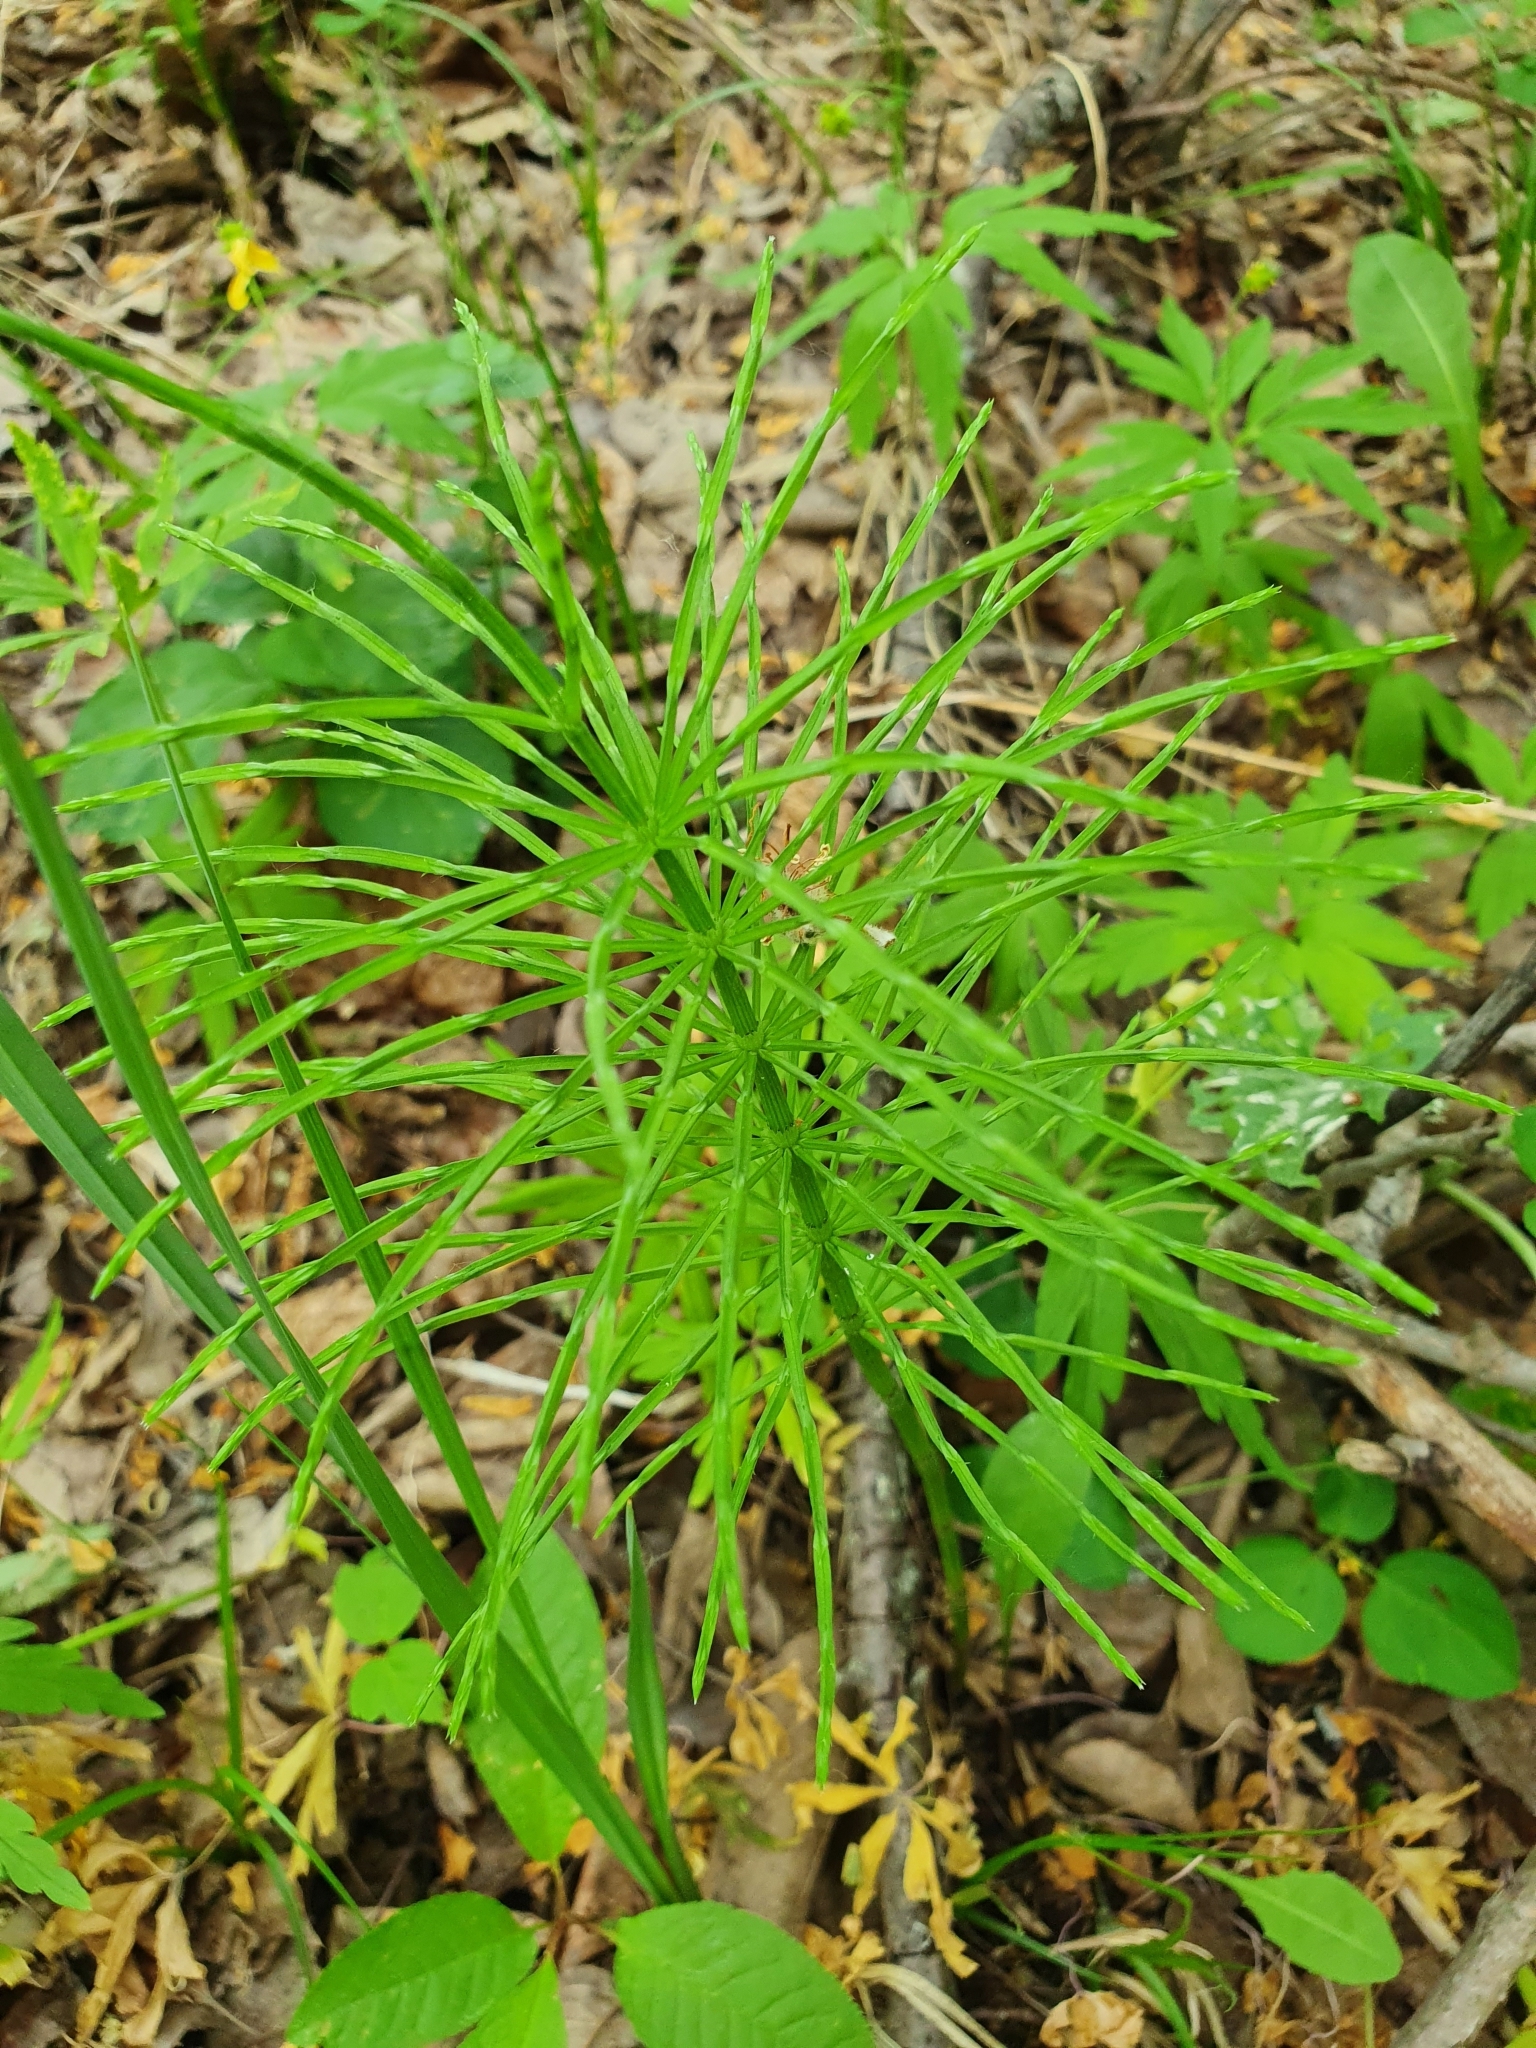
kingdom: Plantae
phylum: Tracheophyta
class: Polypodiopsida
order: Equisetales
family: Equisetaceae
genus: Equisetum
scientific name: Equisetum arvense
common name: Field horsetail
